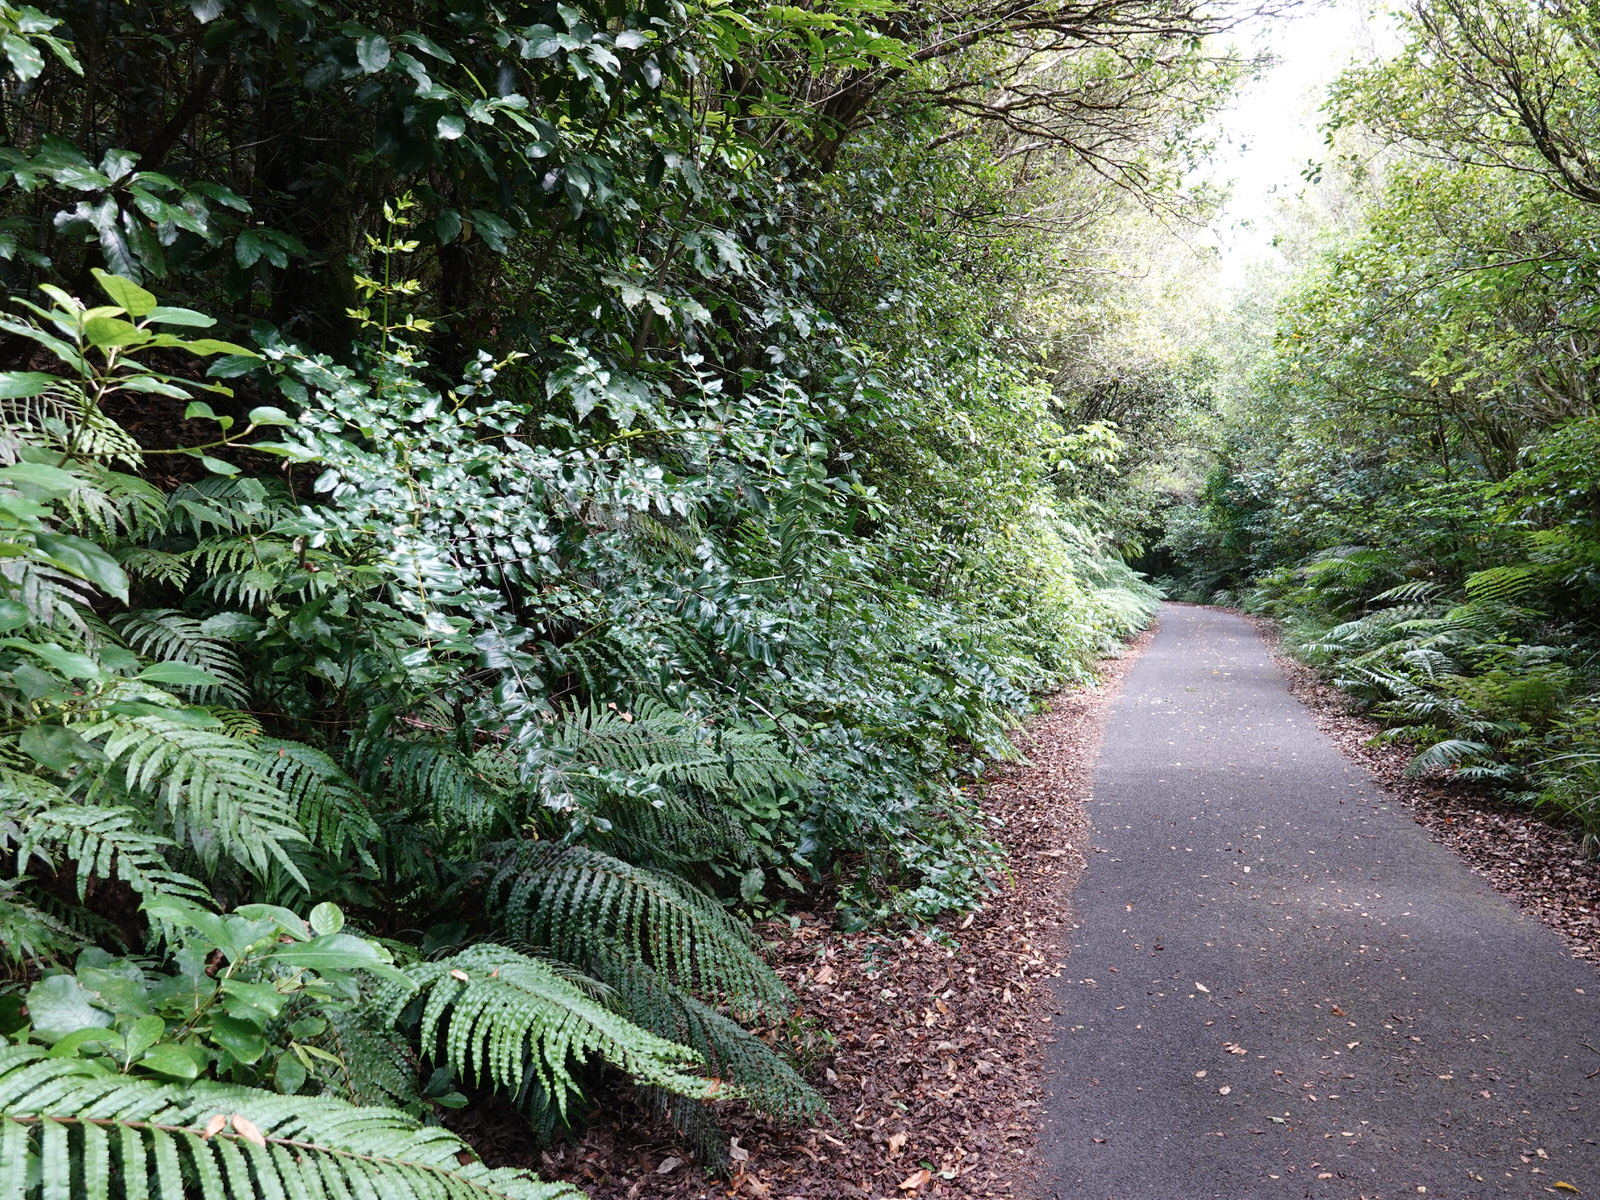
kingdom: Plantae
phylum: Tracheophyta
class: Magnoliopsida
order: Cucurbitales
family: Coriariaceae
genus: Coriaria
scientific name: Coriaria arborea
